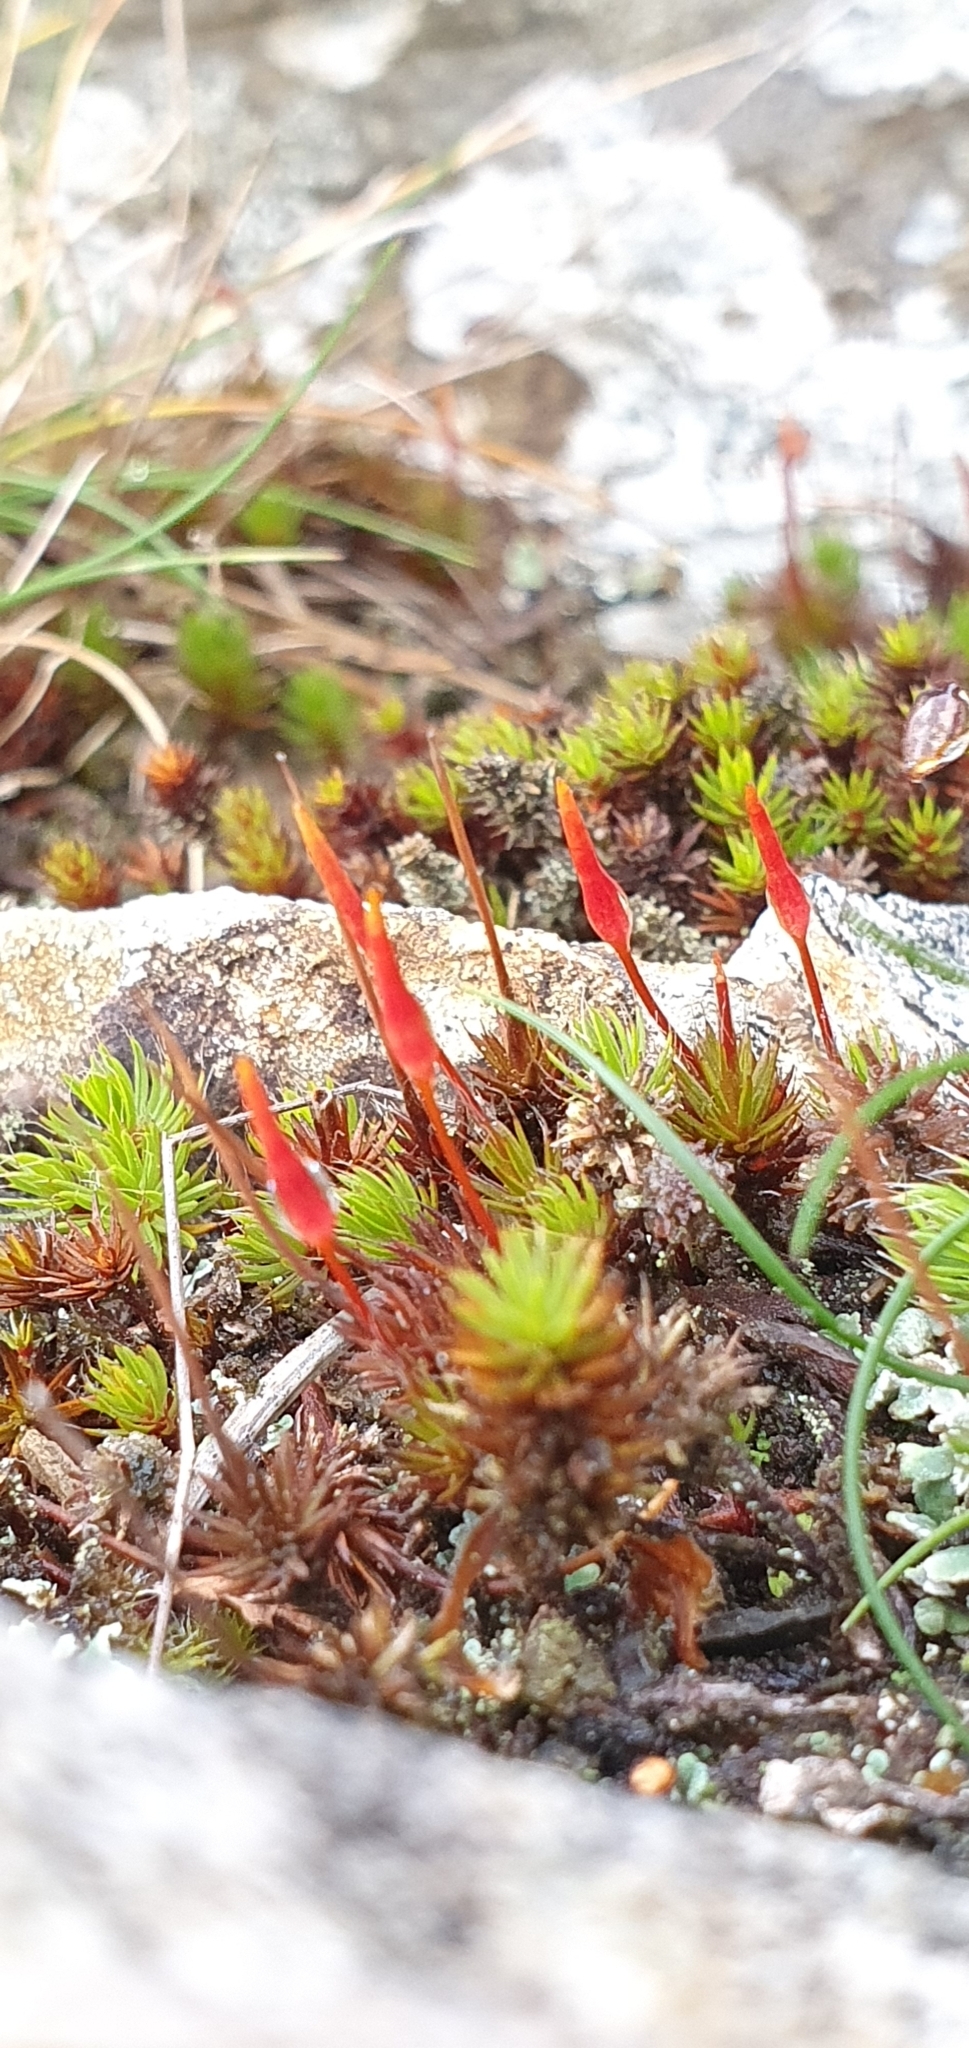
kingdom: Plantae
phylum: Bryophyta
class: Polytrichopsida
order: Polytrichales
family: Polytrichaceae
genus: Polytrichum
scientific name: Polytrichum piliferum
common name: Bristly haircap
